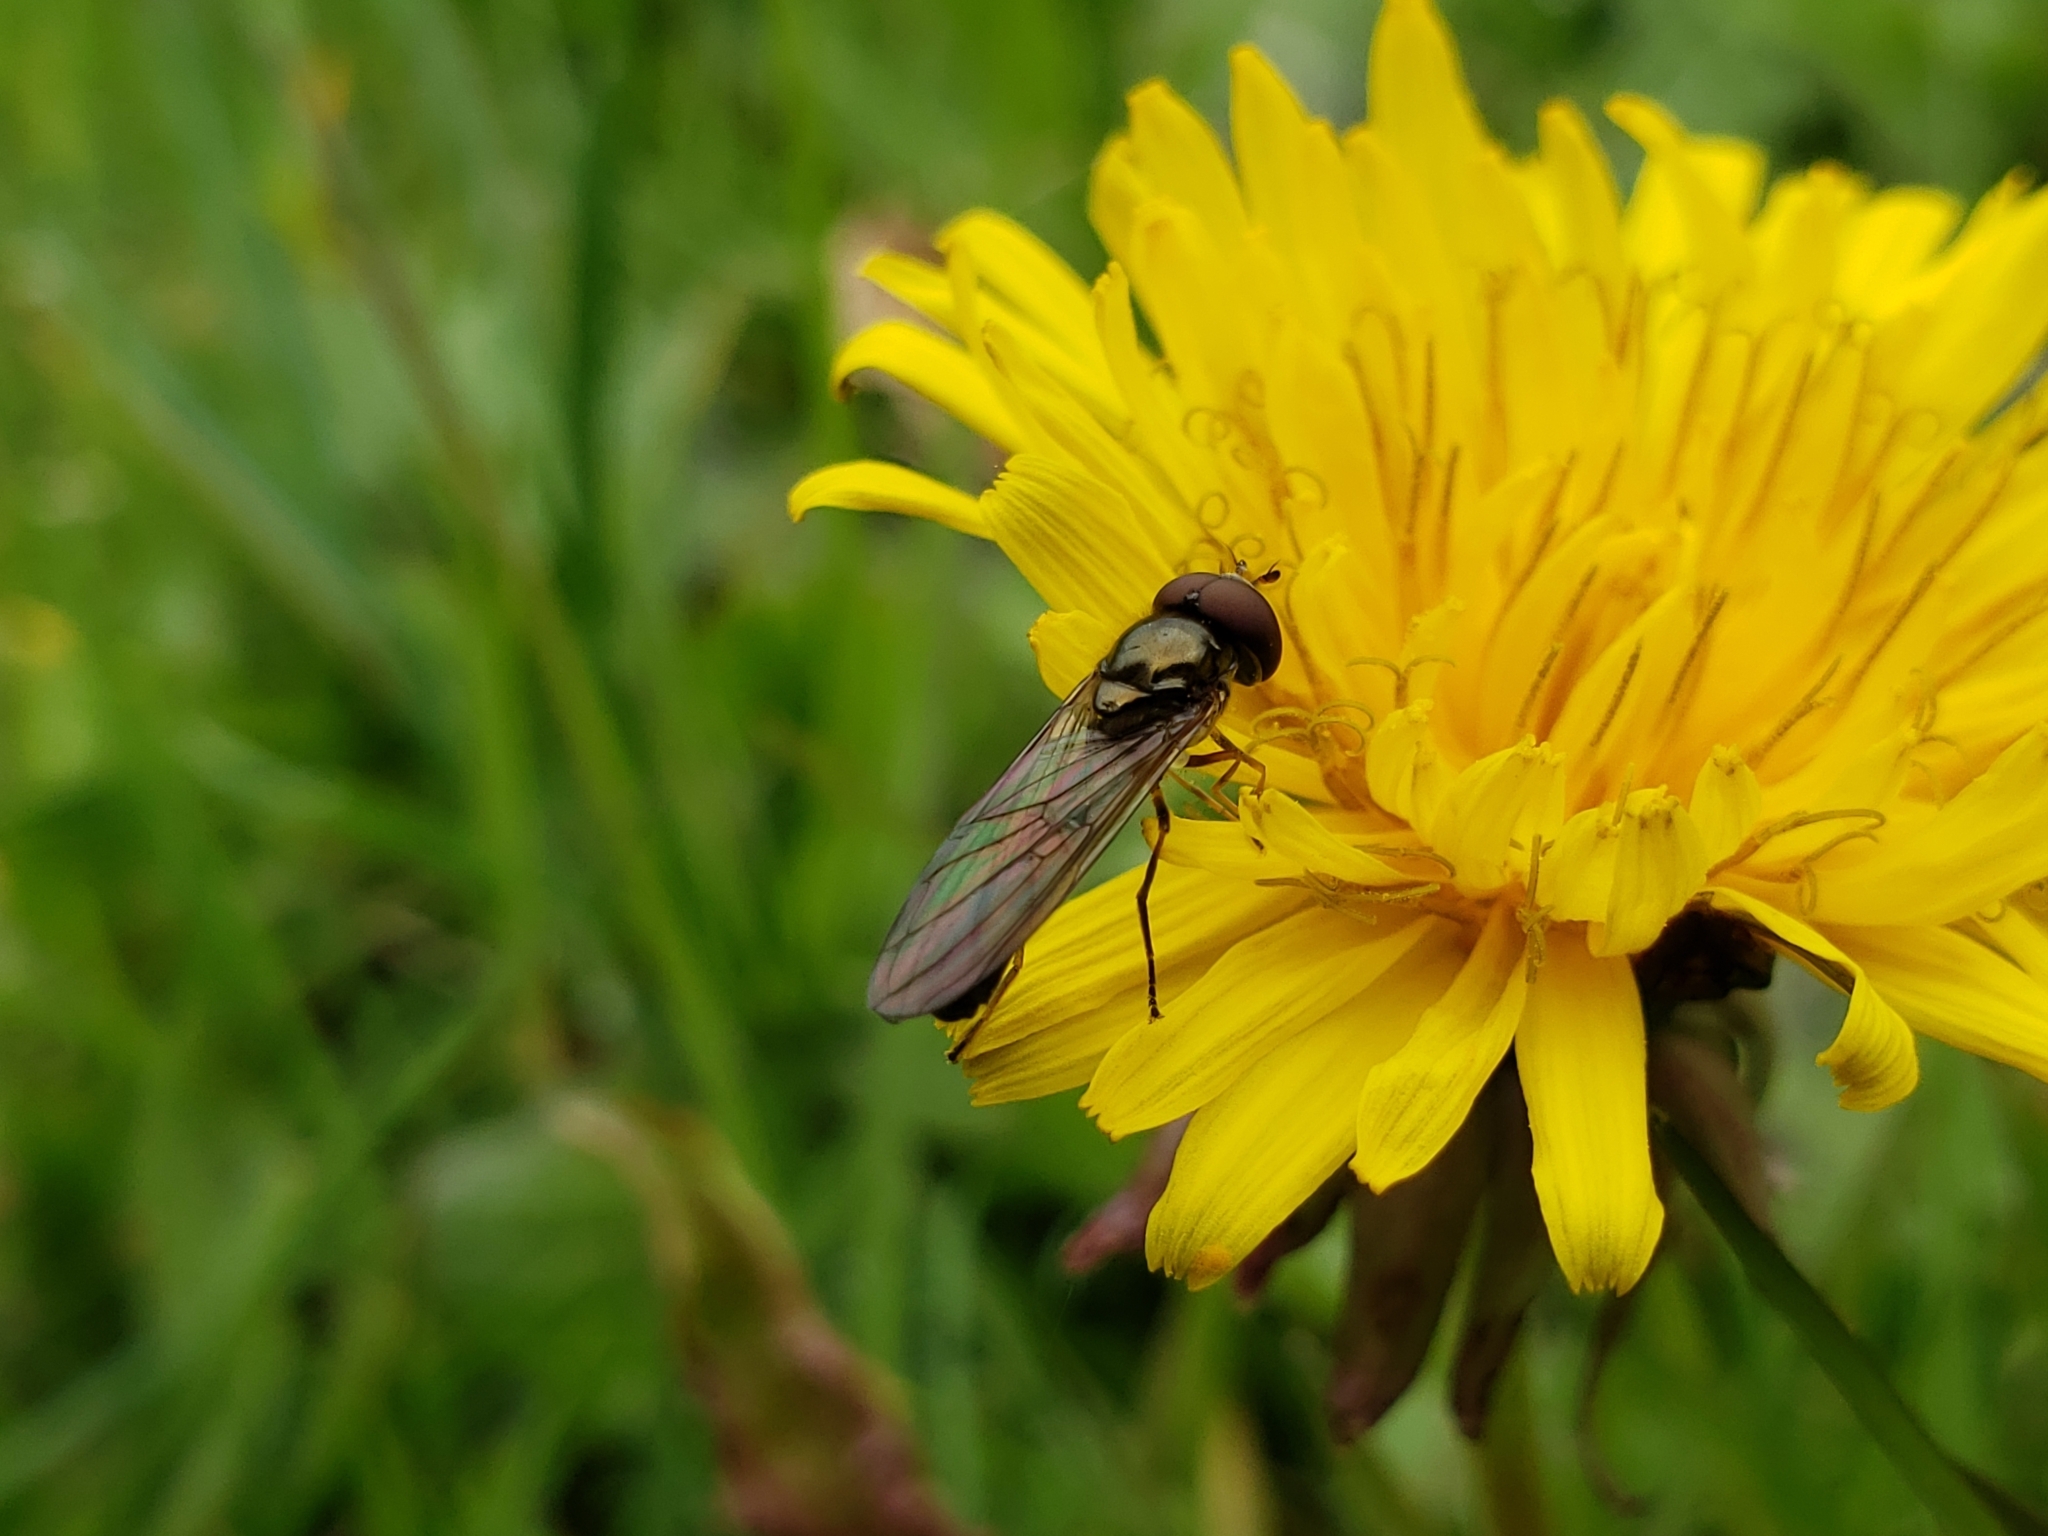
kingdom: Animalia
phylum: Arthropoda
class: Insecta
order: Diptera
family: Syrphidae
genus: Melanostoma
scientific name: Melanostoma mellina
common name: Hover fly
